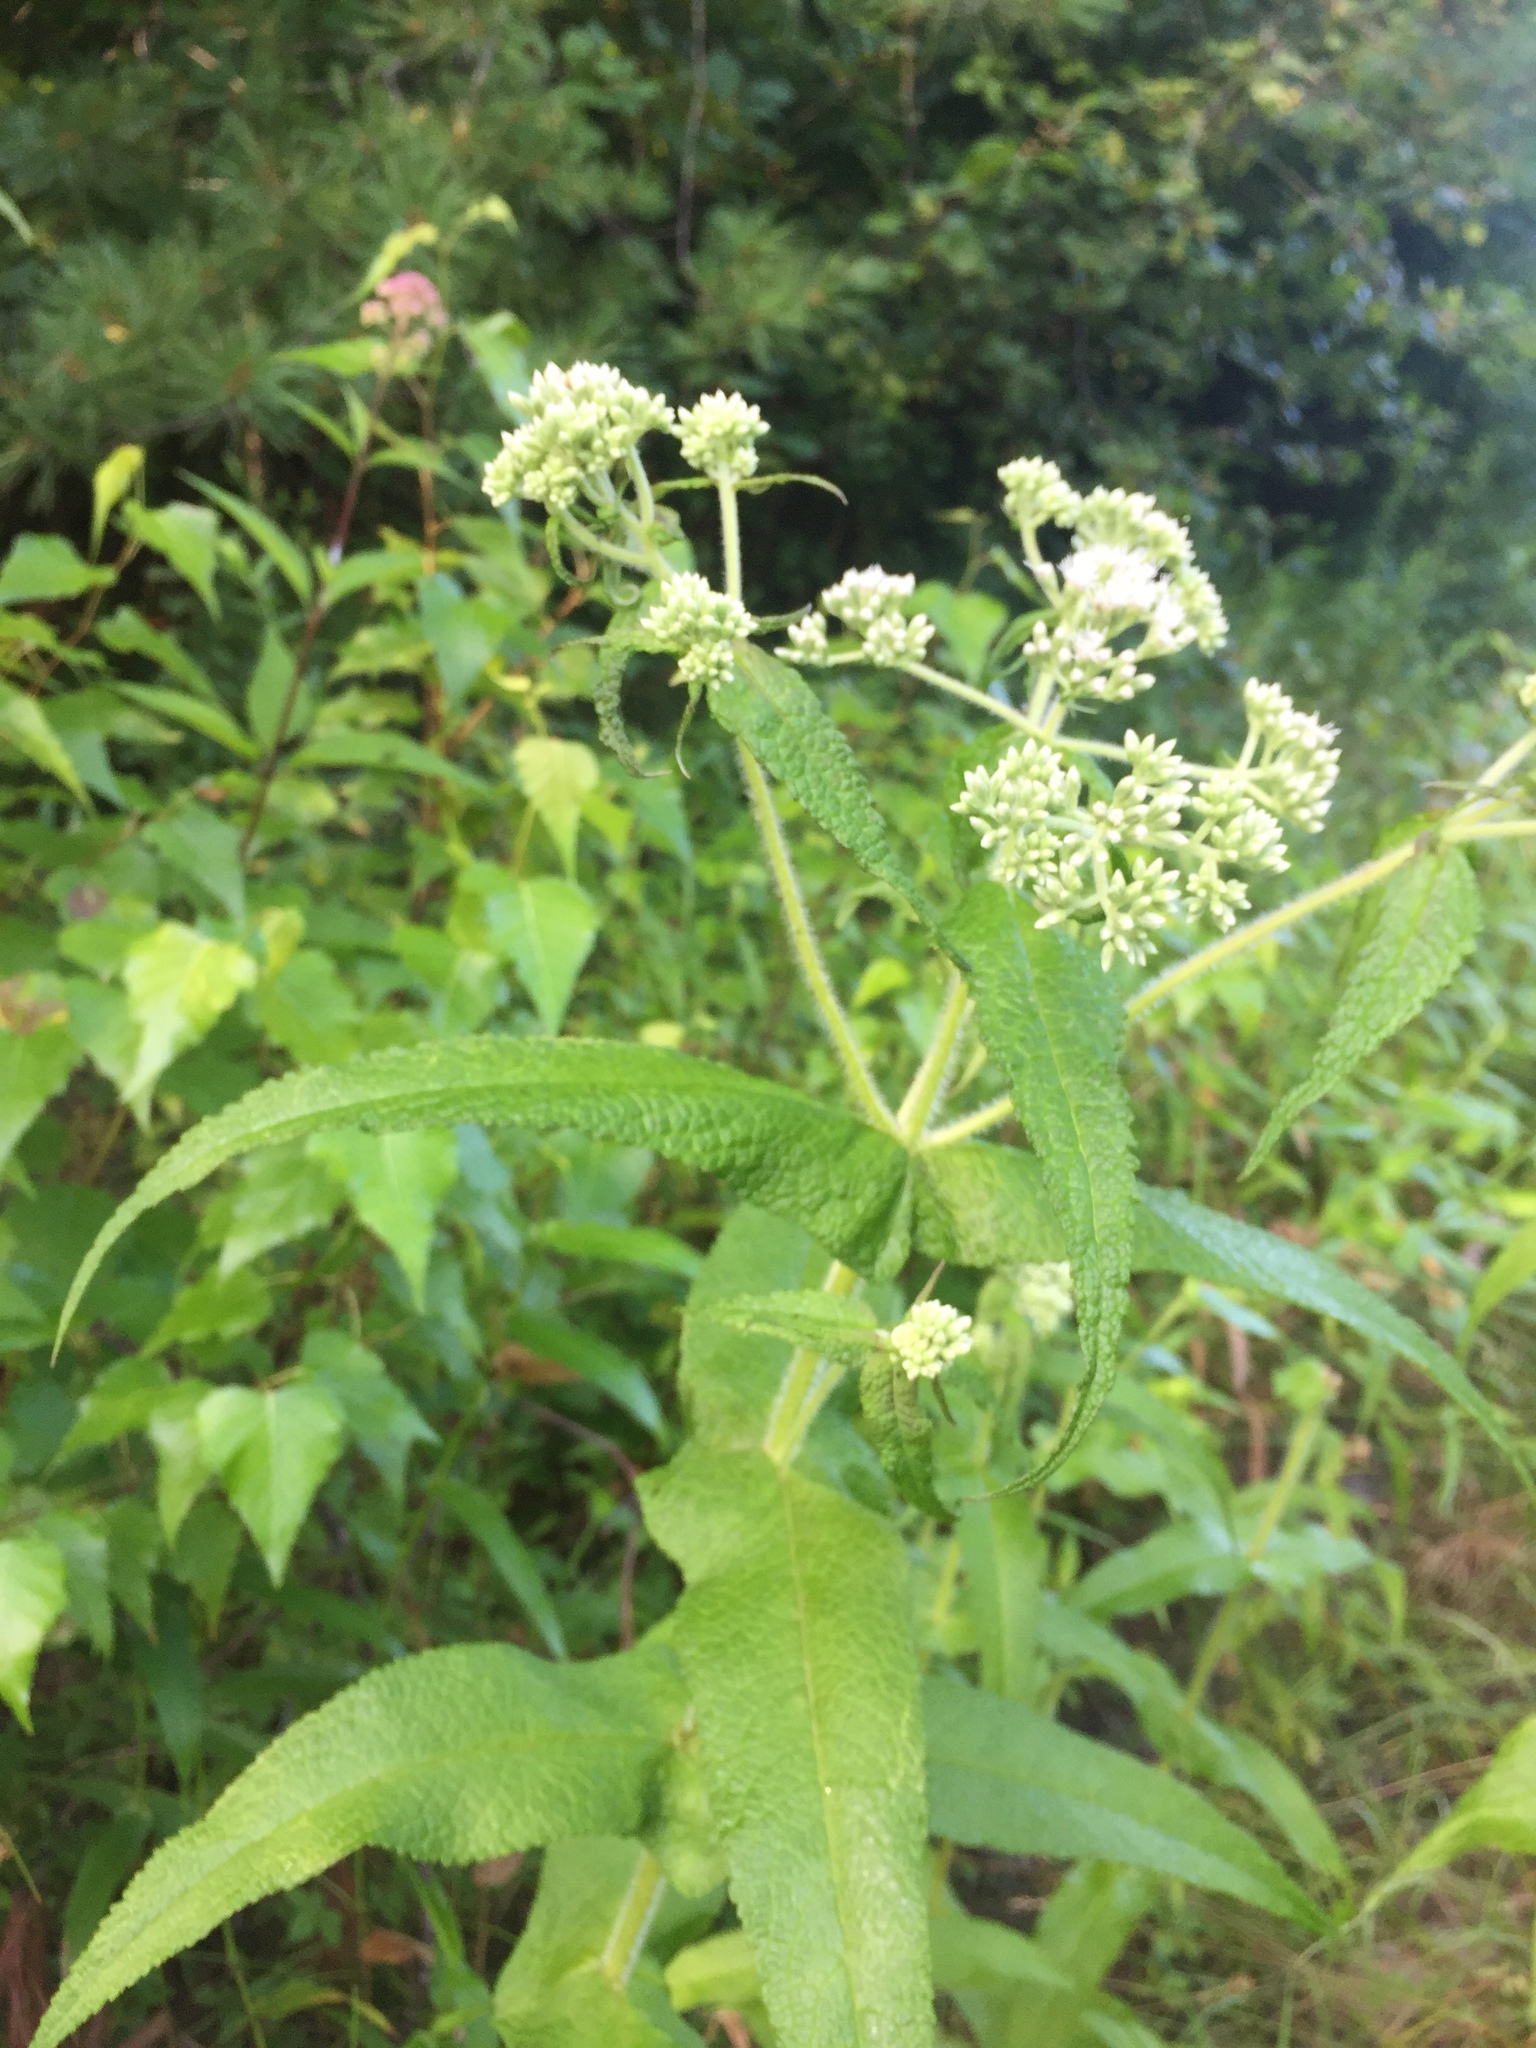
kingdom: Plantae
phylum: Tracheophyta
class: Magnoliopsida
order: Asterales
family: Asteraceae
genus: Eupatorium
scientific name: Eupatorium perfoliatum
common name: Boneset
